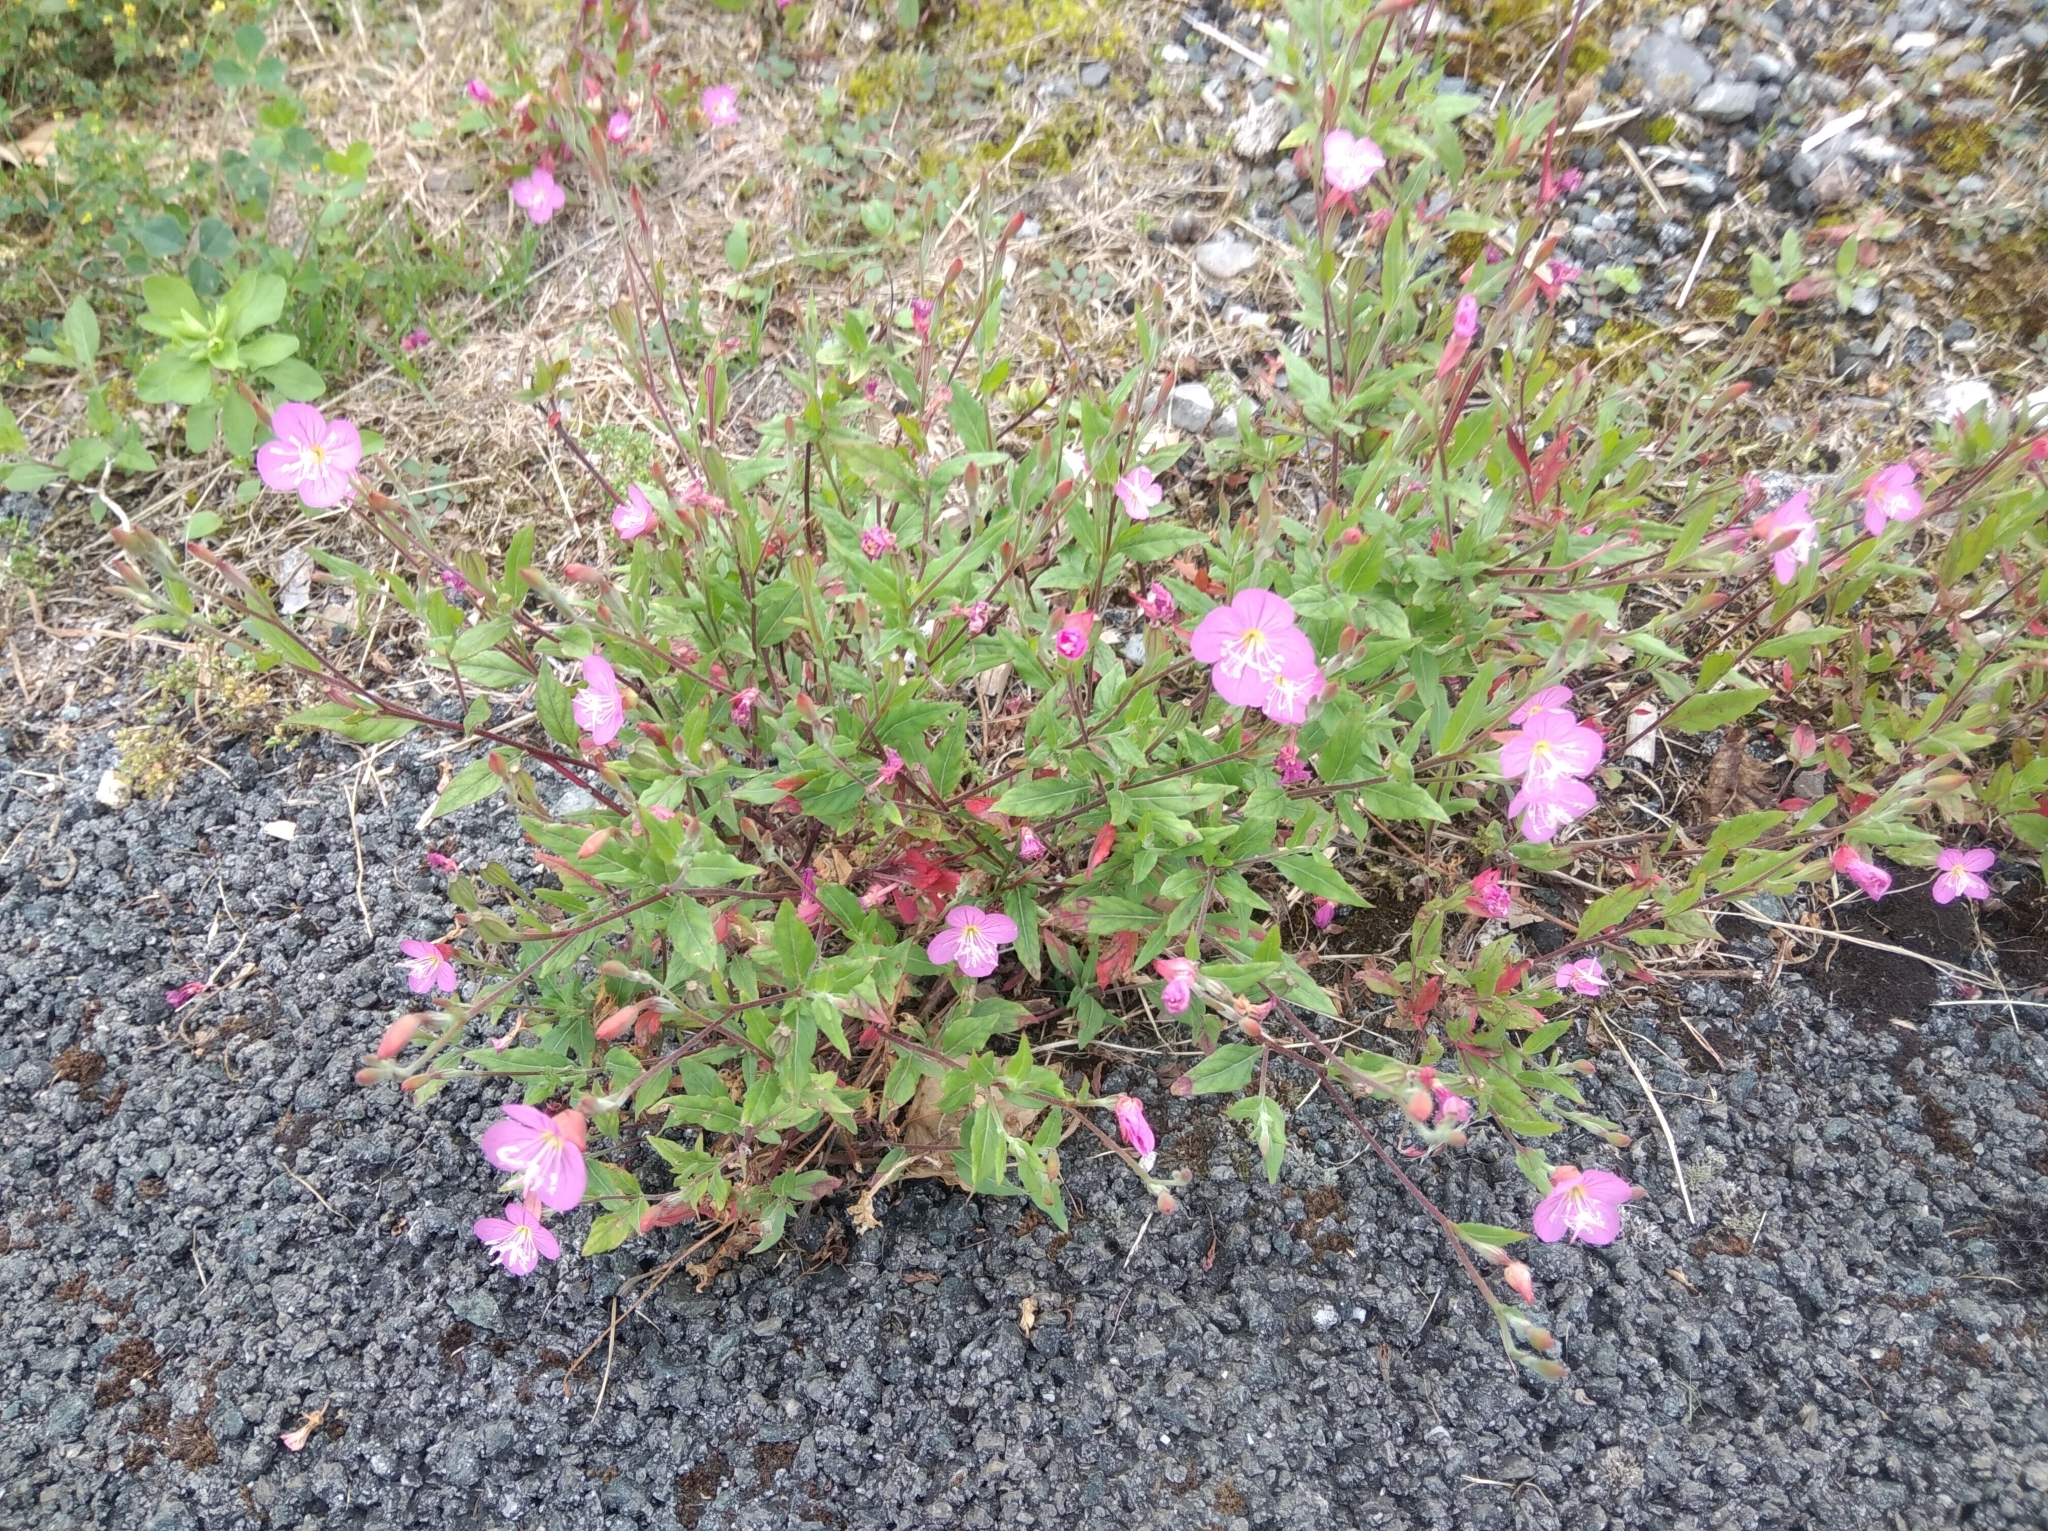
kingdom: Plantae
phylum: Tracheophyta
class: Magnoliopsida
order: Myrtales
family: Onagraceae
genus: Oenothera
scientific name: Oenothera rosea
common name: Rosy evening-primrose
